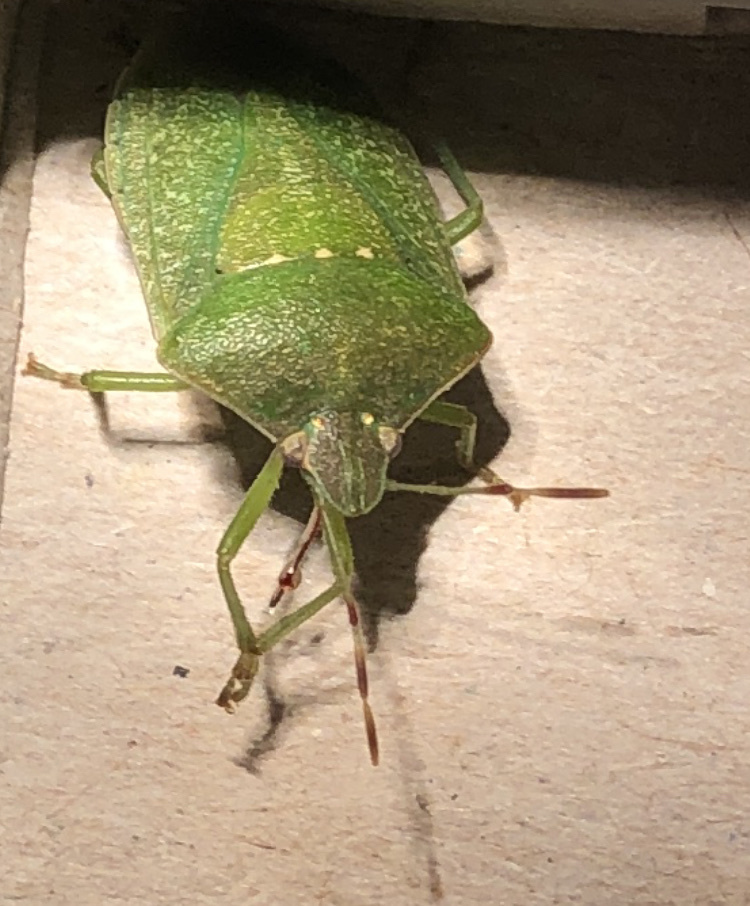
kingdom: Animalia
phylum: Arthropoda
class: Insecta
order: Hemiptera
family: Pentatomidae
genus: Nezara
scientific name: Nezara viridula
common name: Southern green stink bug
